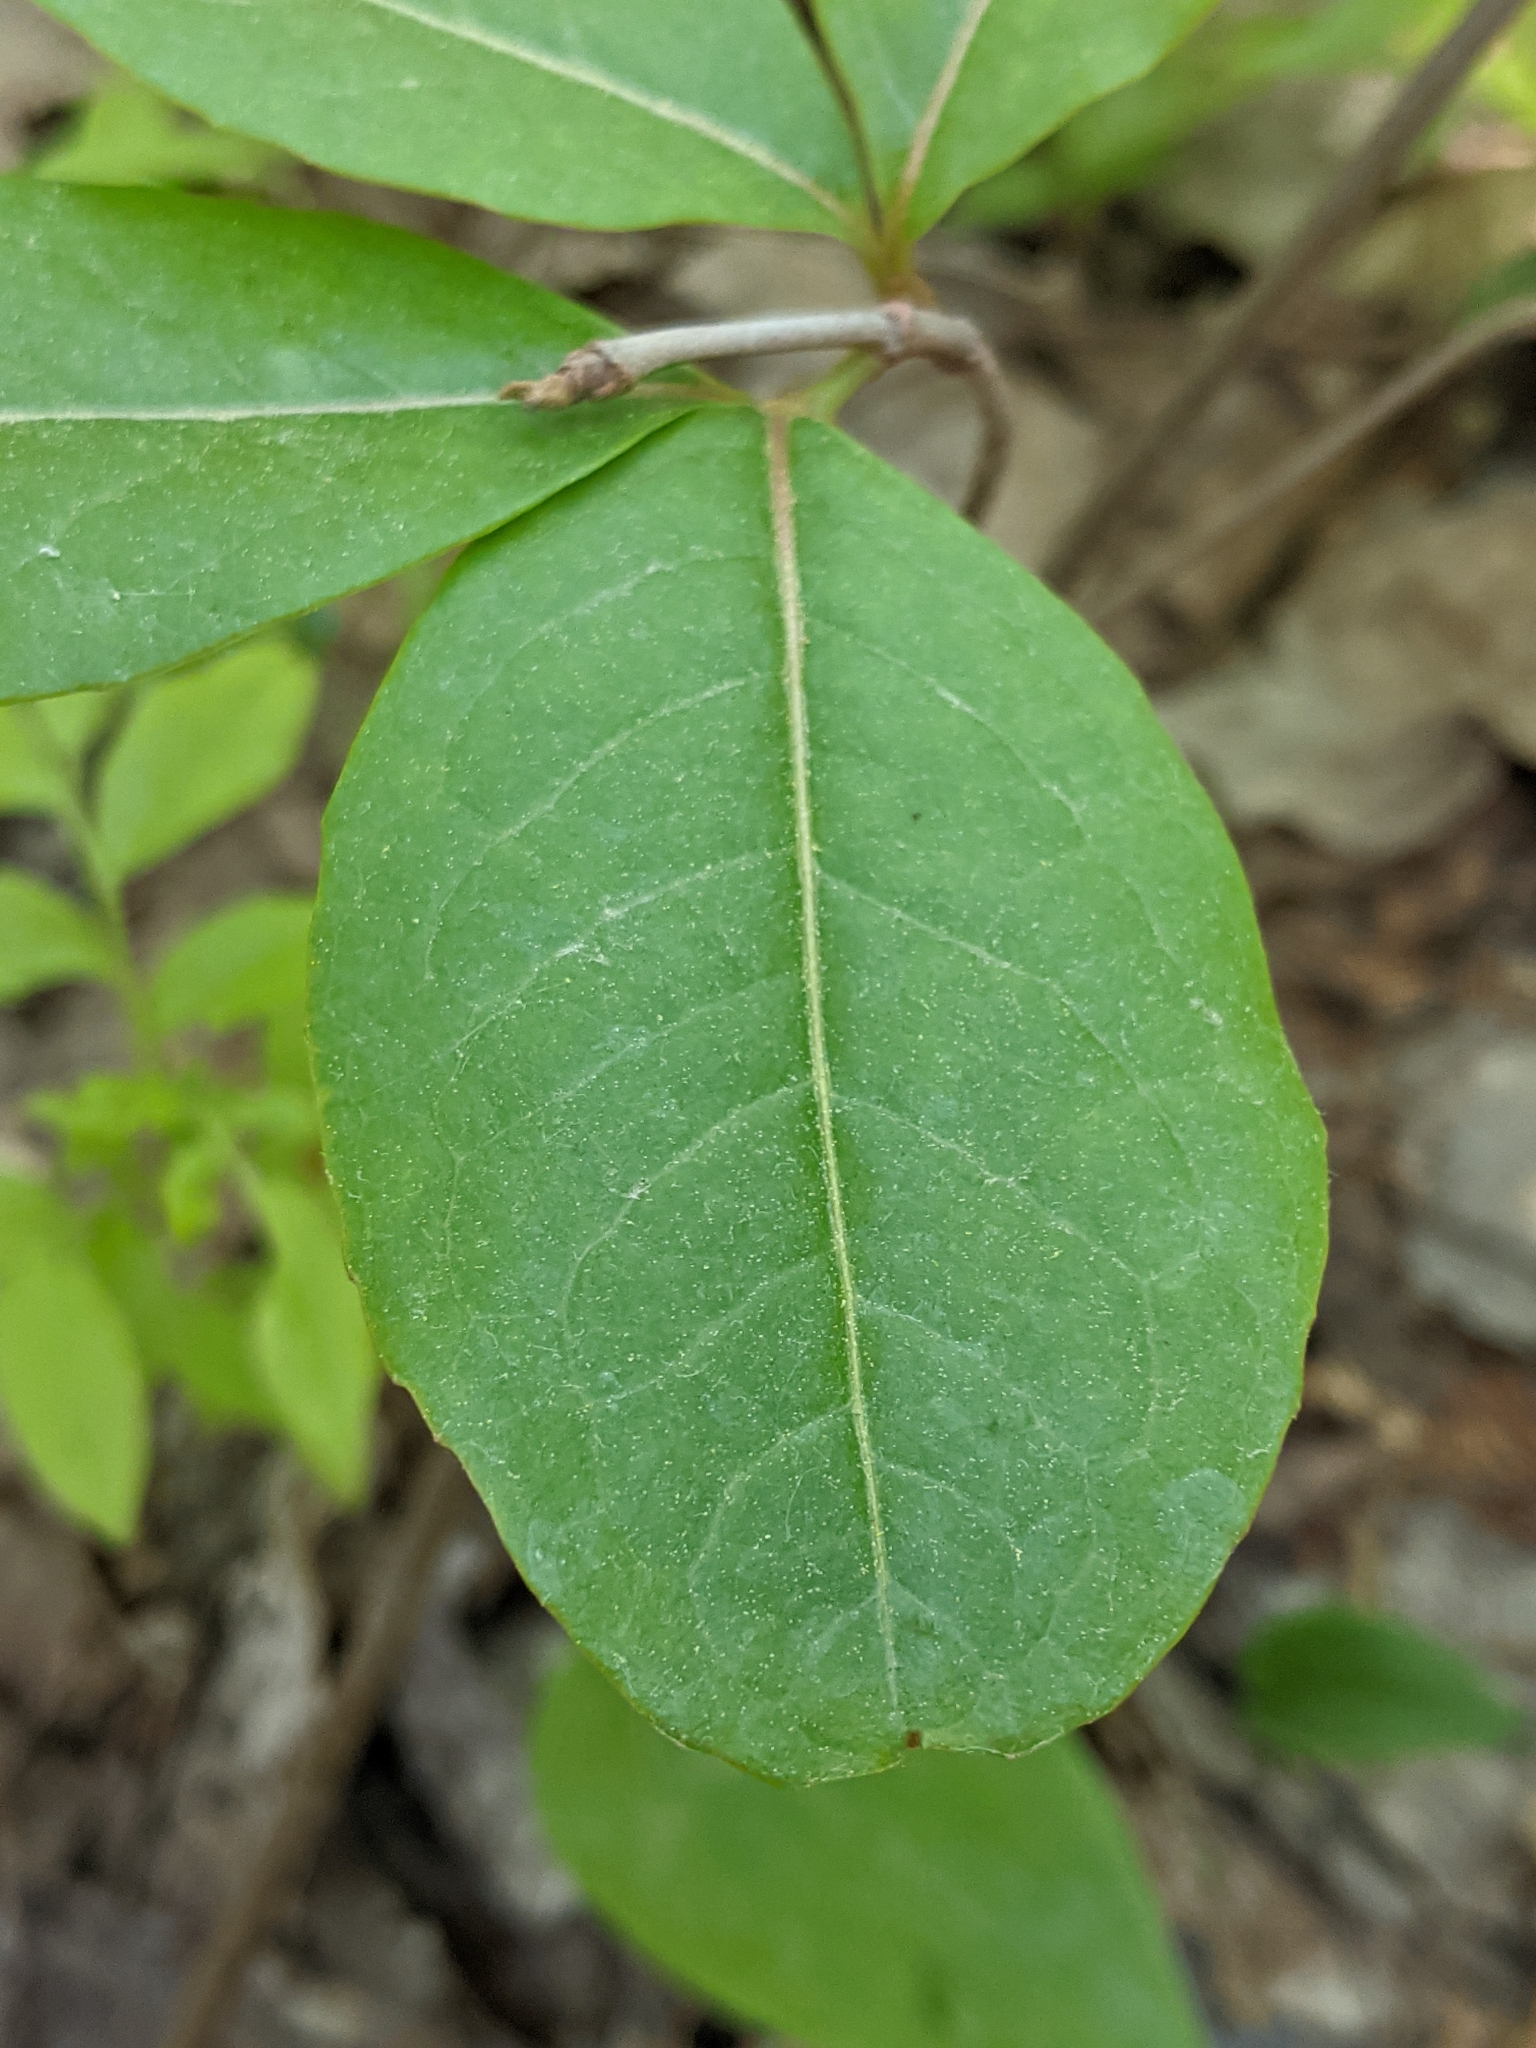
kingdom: Plantae
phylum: Tracheophyta
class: Magnoliopsida
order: Ericales
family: Ericaceae
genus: Gaultheria
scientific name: Gaultheria procumbens
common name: Checkerberry
